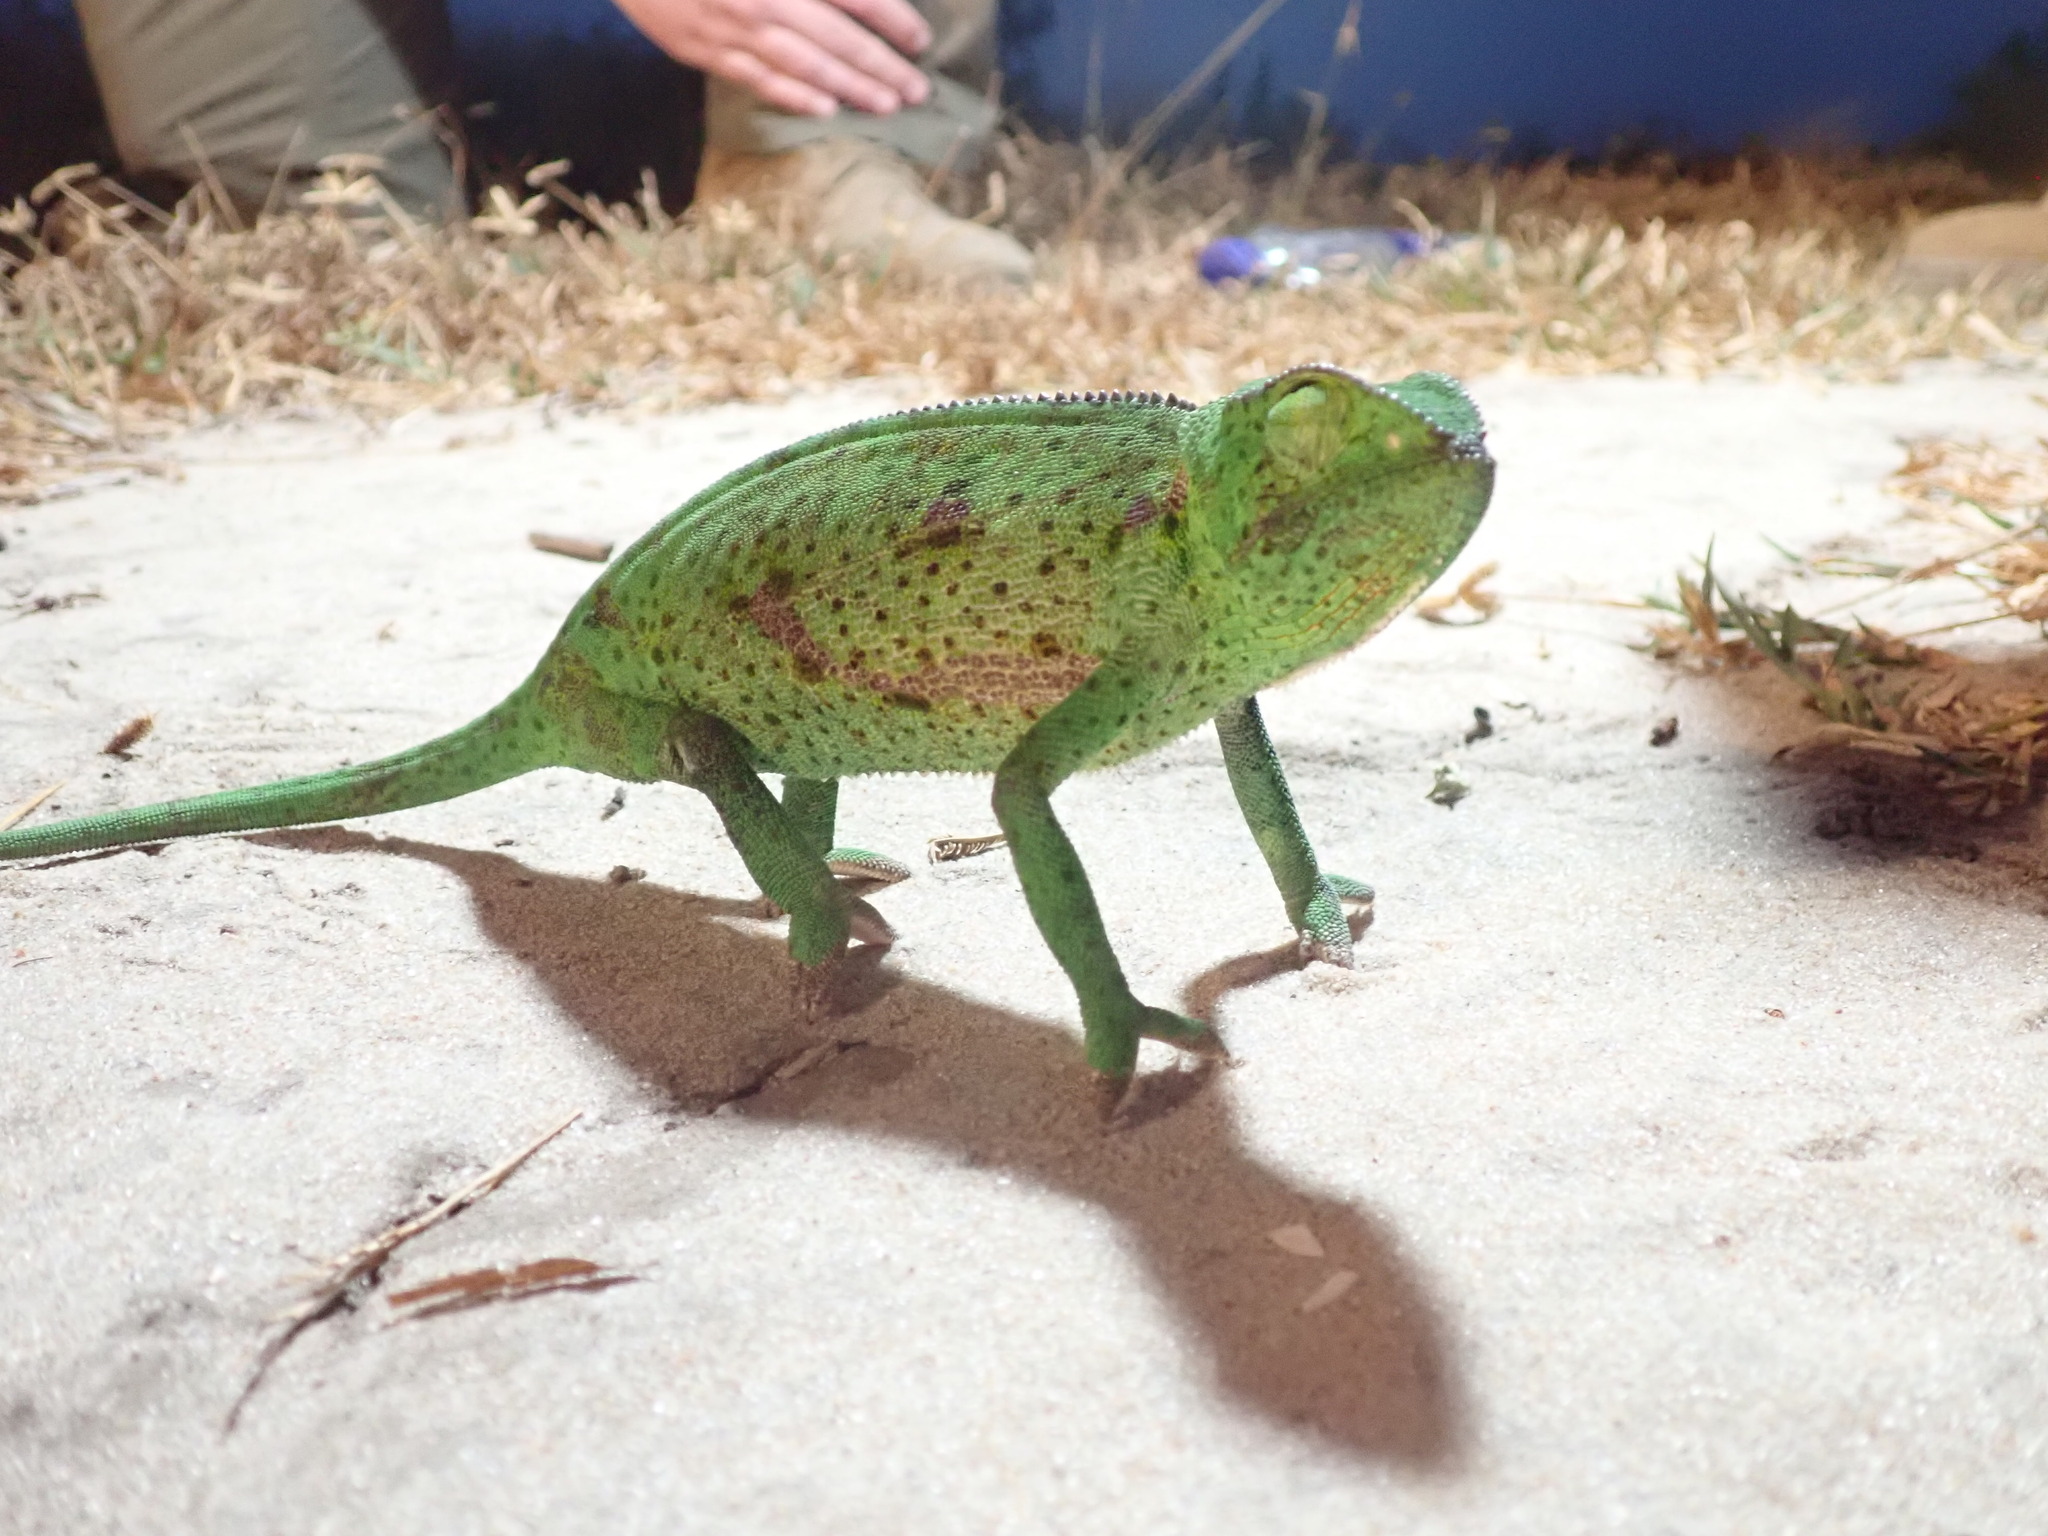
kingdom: Animalia
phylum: Chordata
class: Squamata
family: Chamaeleonidae
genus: Chamaeleo
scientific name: Chamaeleo dilepis
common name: Flapneck chameleon
